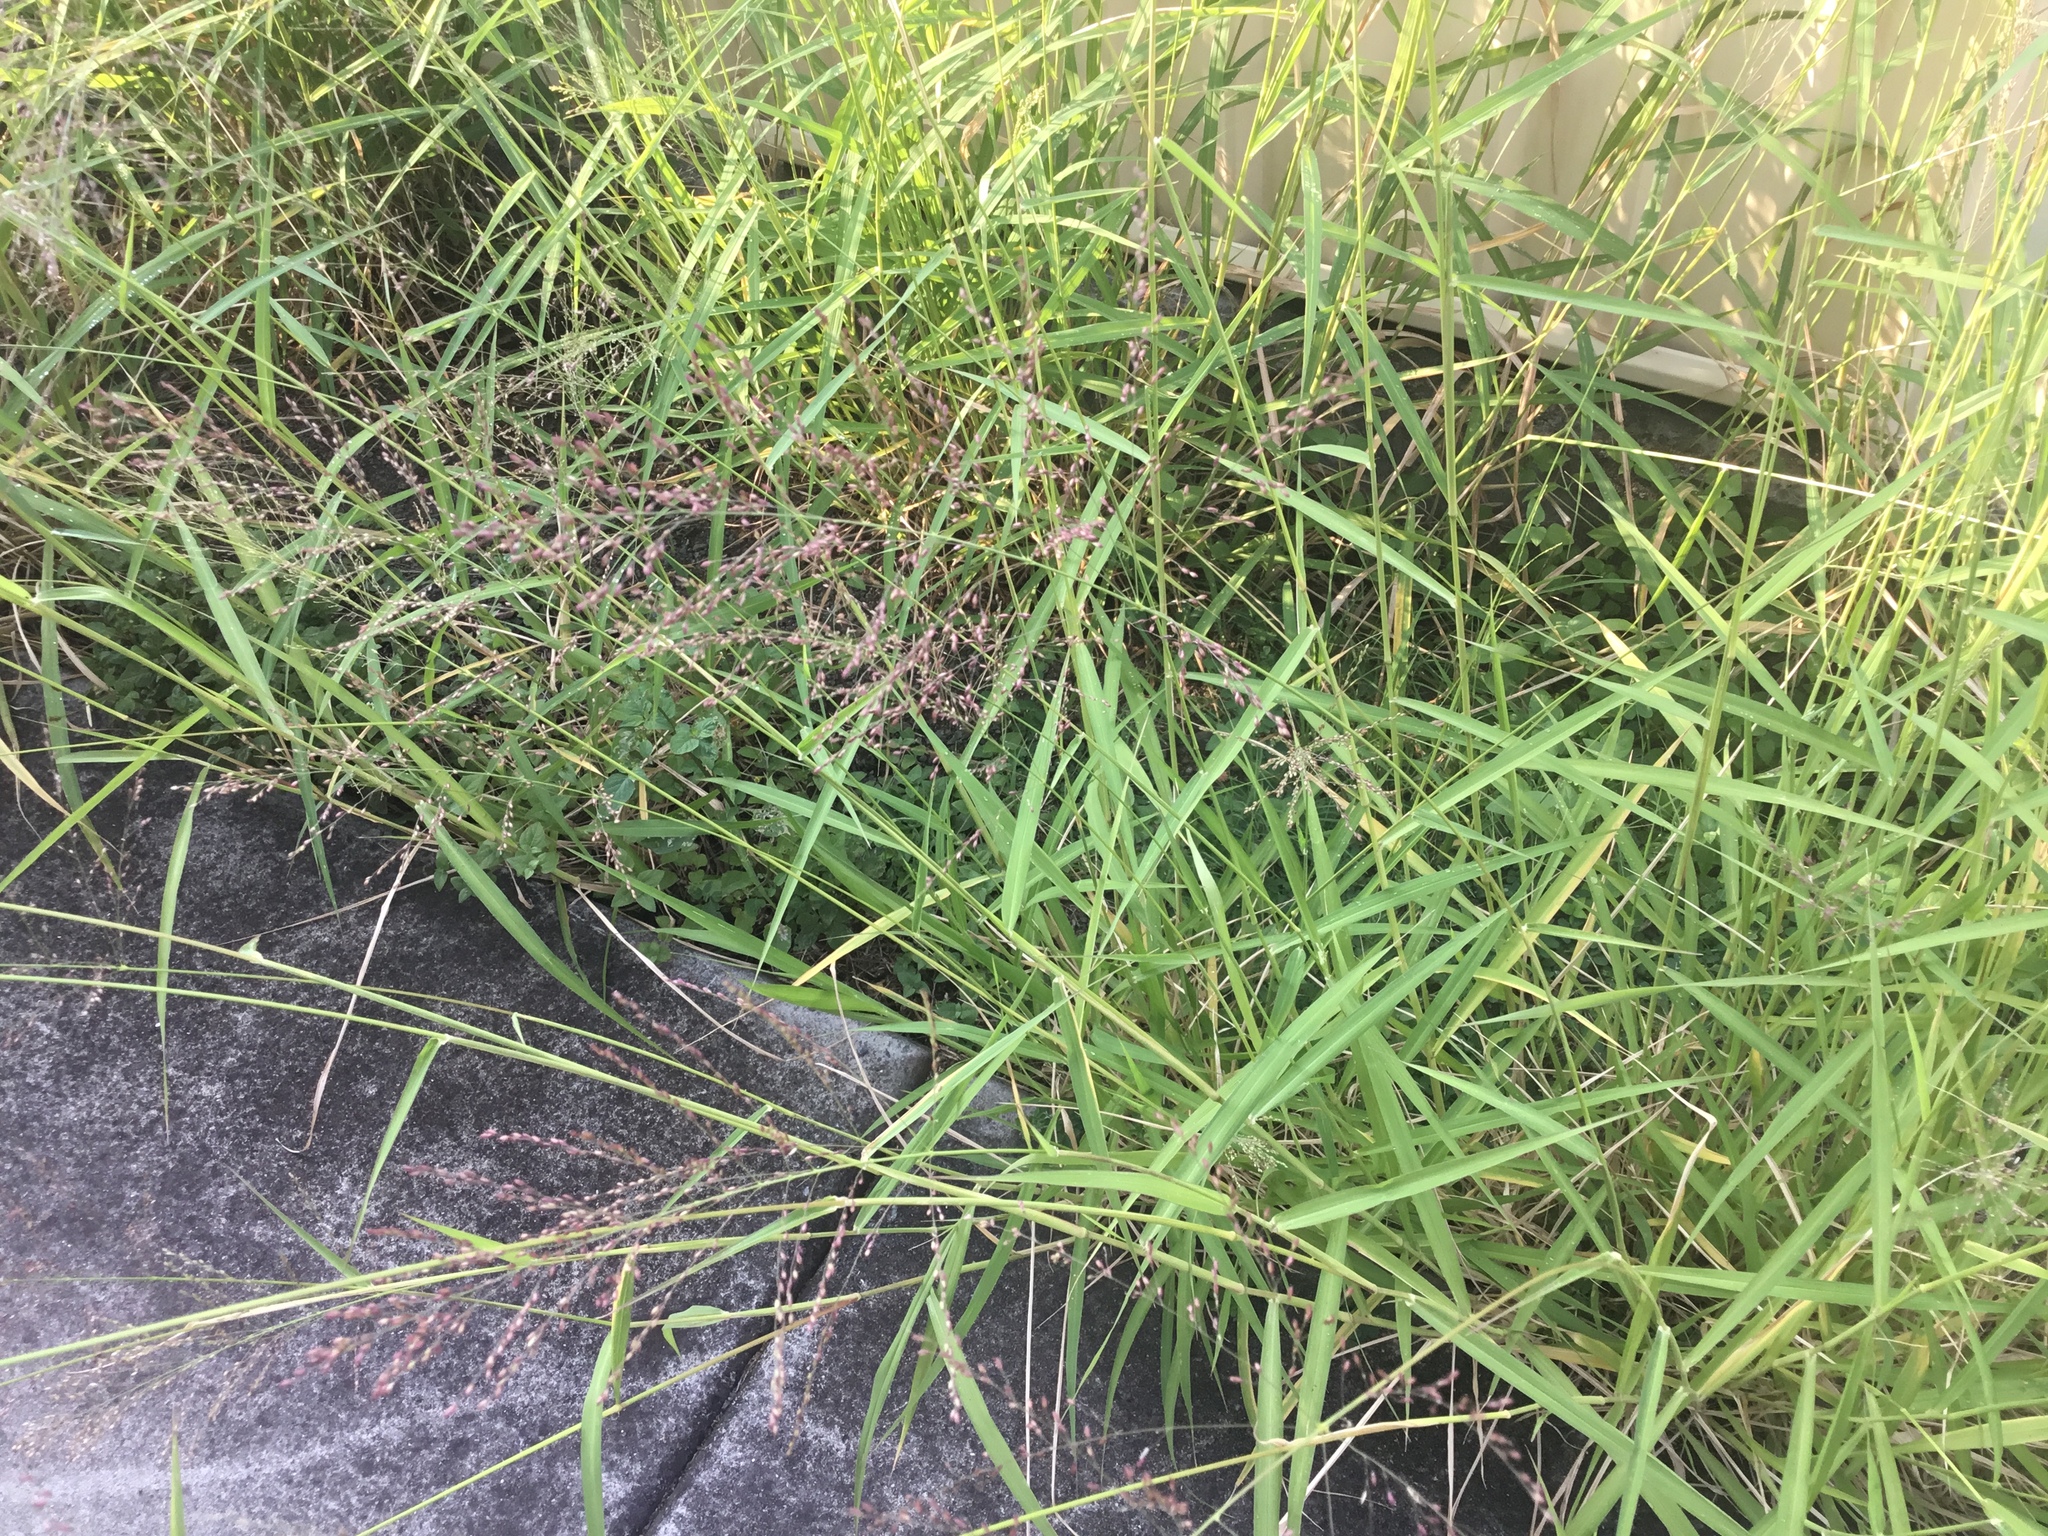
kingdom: Plantae
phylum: Tracheophyta
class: Liliopsida
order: Poales
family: Poaceae
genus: Megathyrsus
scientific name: Megathyrsus maximus
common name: Guineagrass
